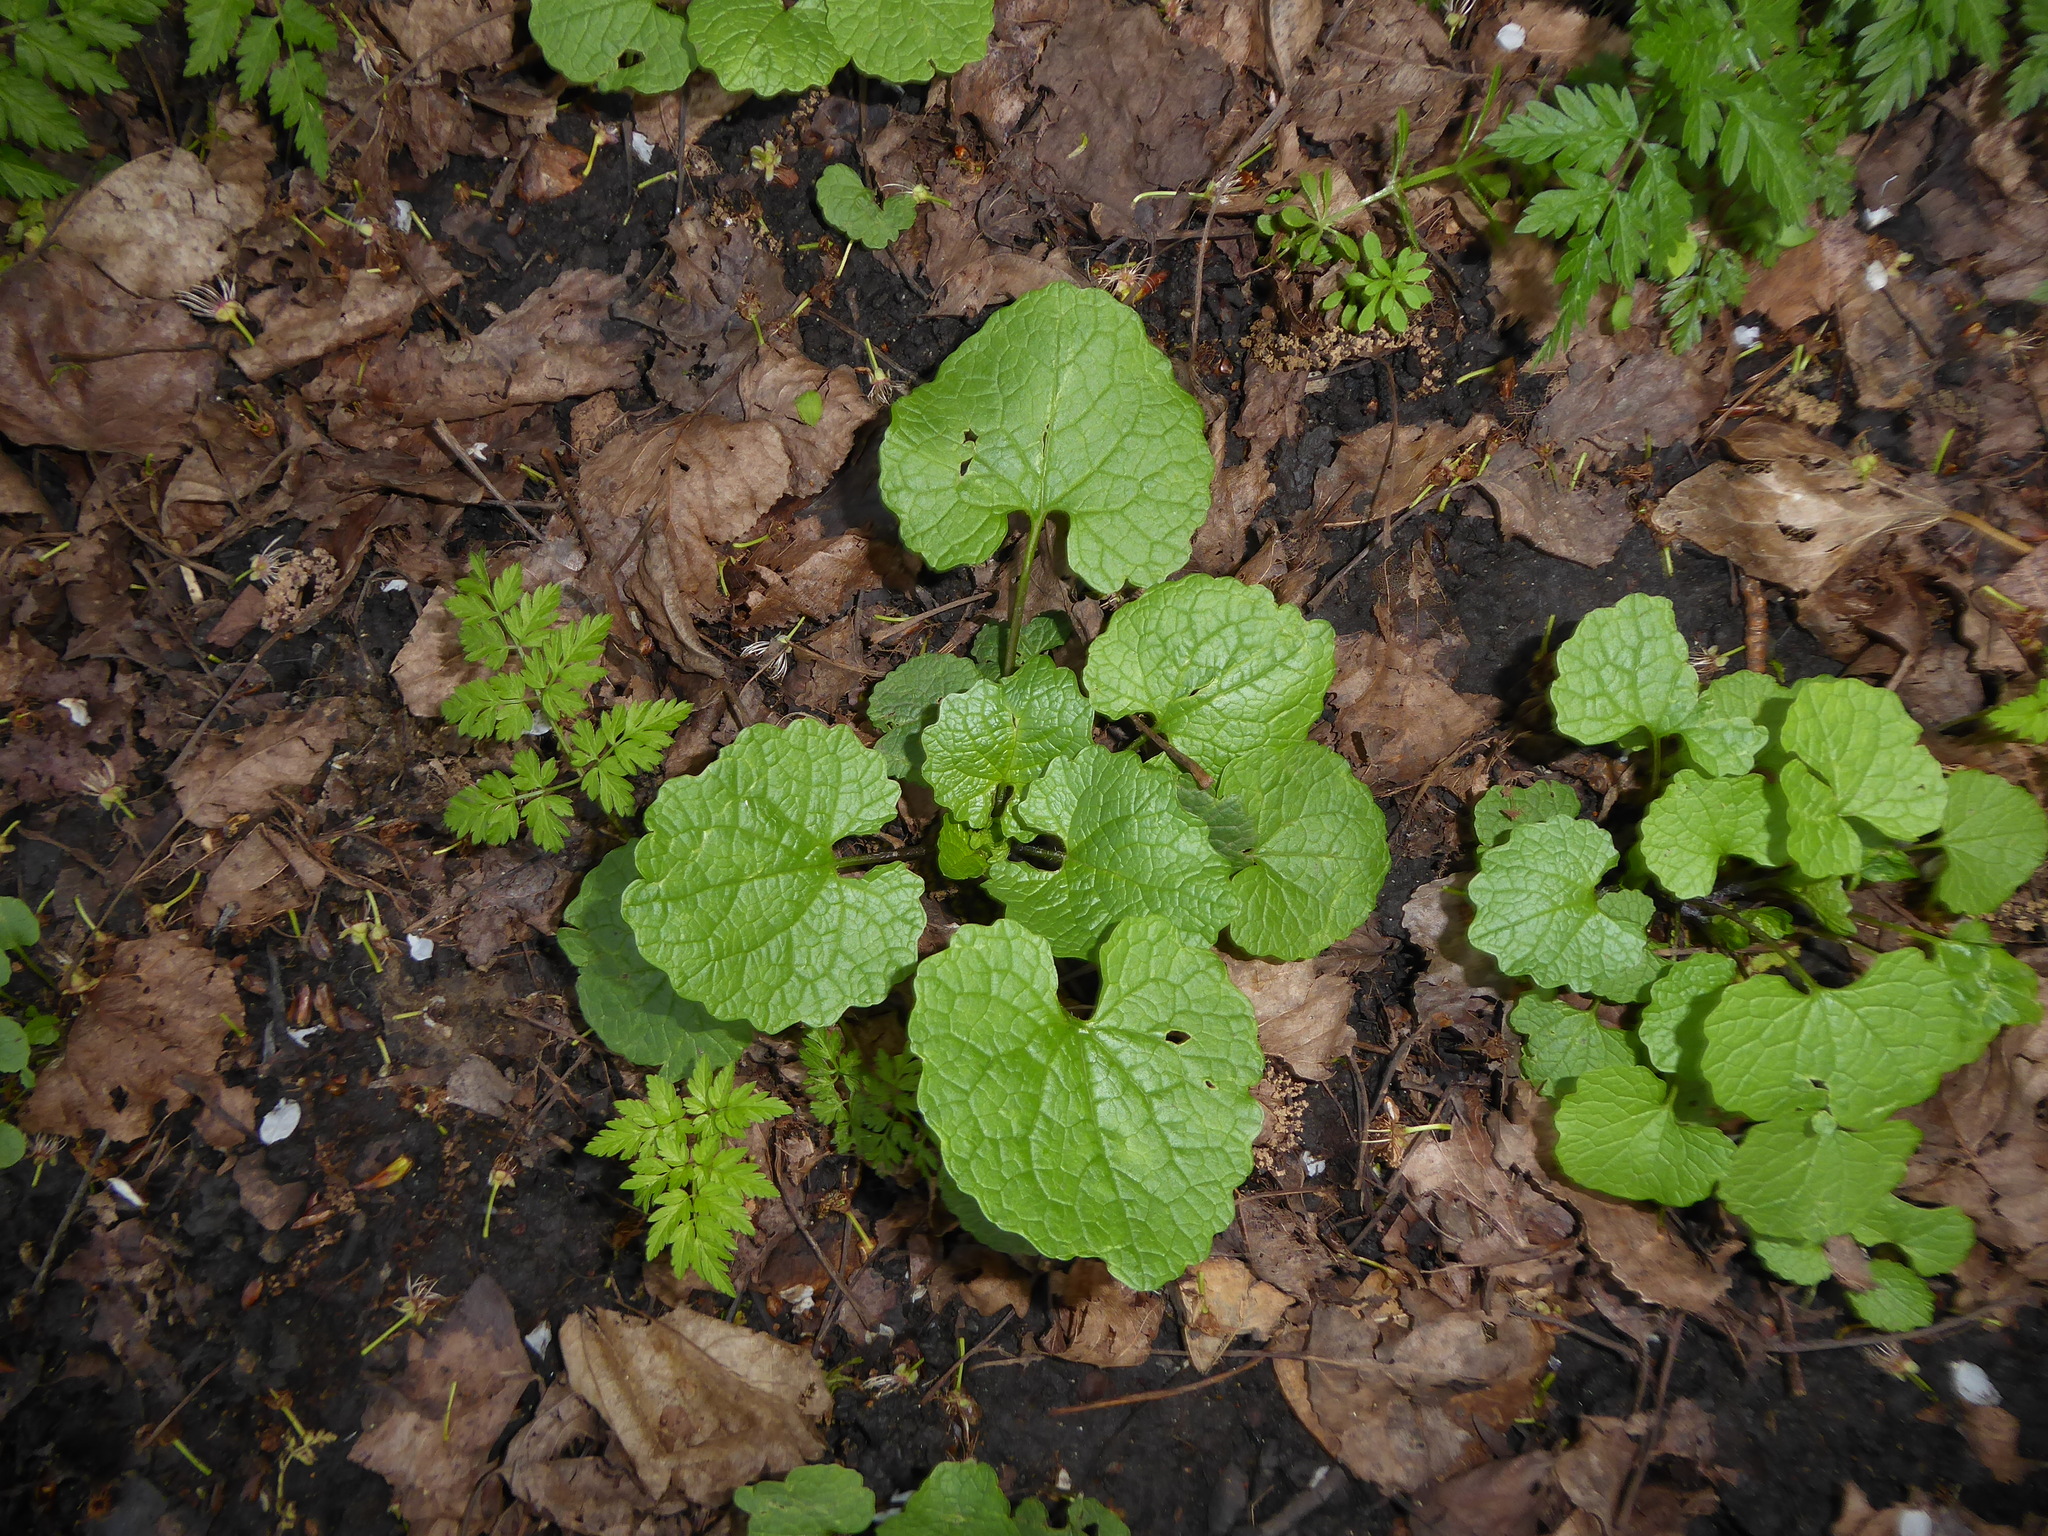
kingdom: Plantae
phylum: Tracheophyta
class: Magnoliopsida
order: Brassicales
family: Brassicaceae
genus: Alliaria
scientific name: Alliaria petiolata
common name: Garlic mustard
